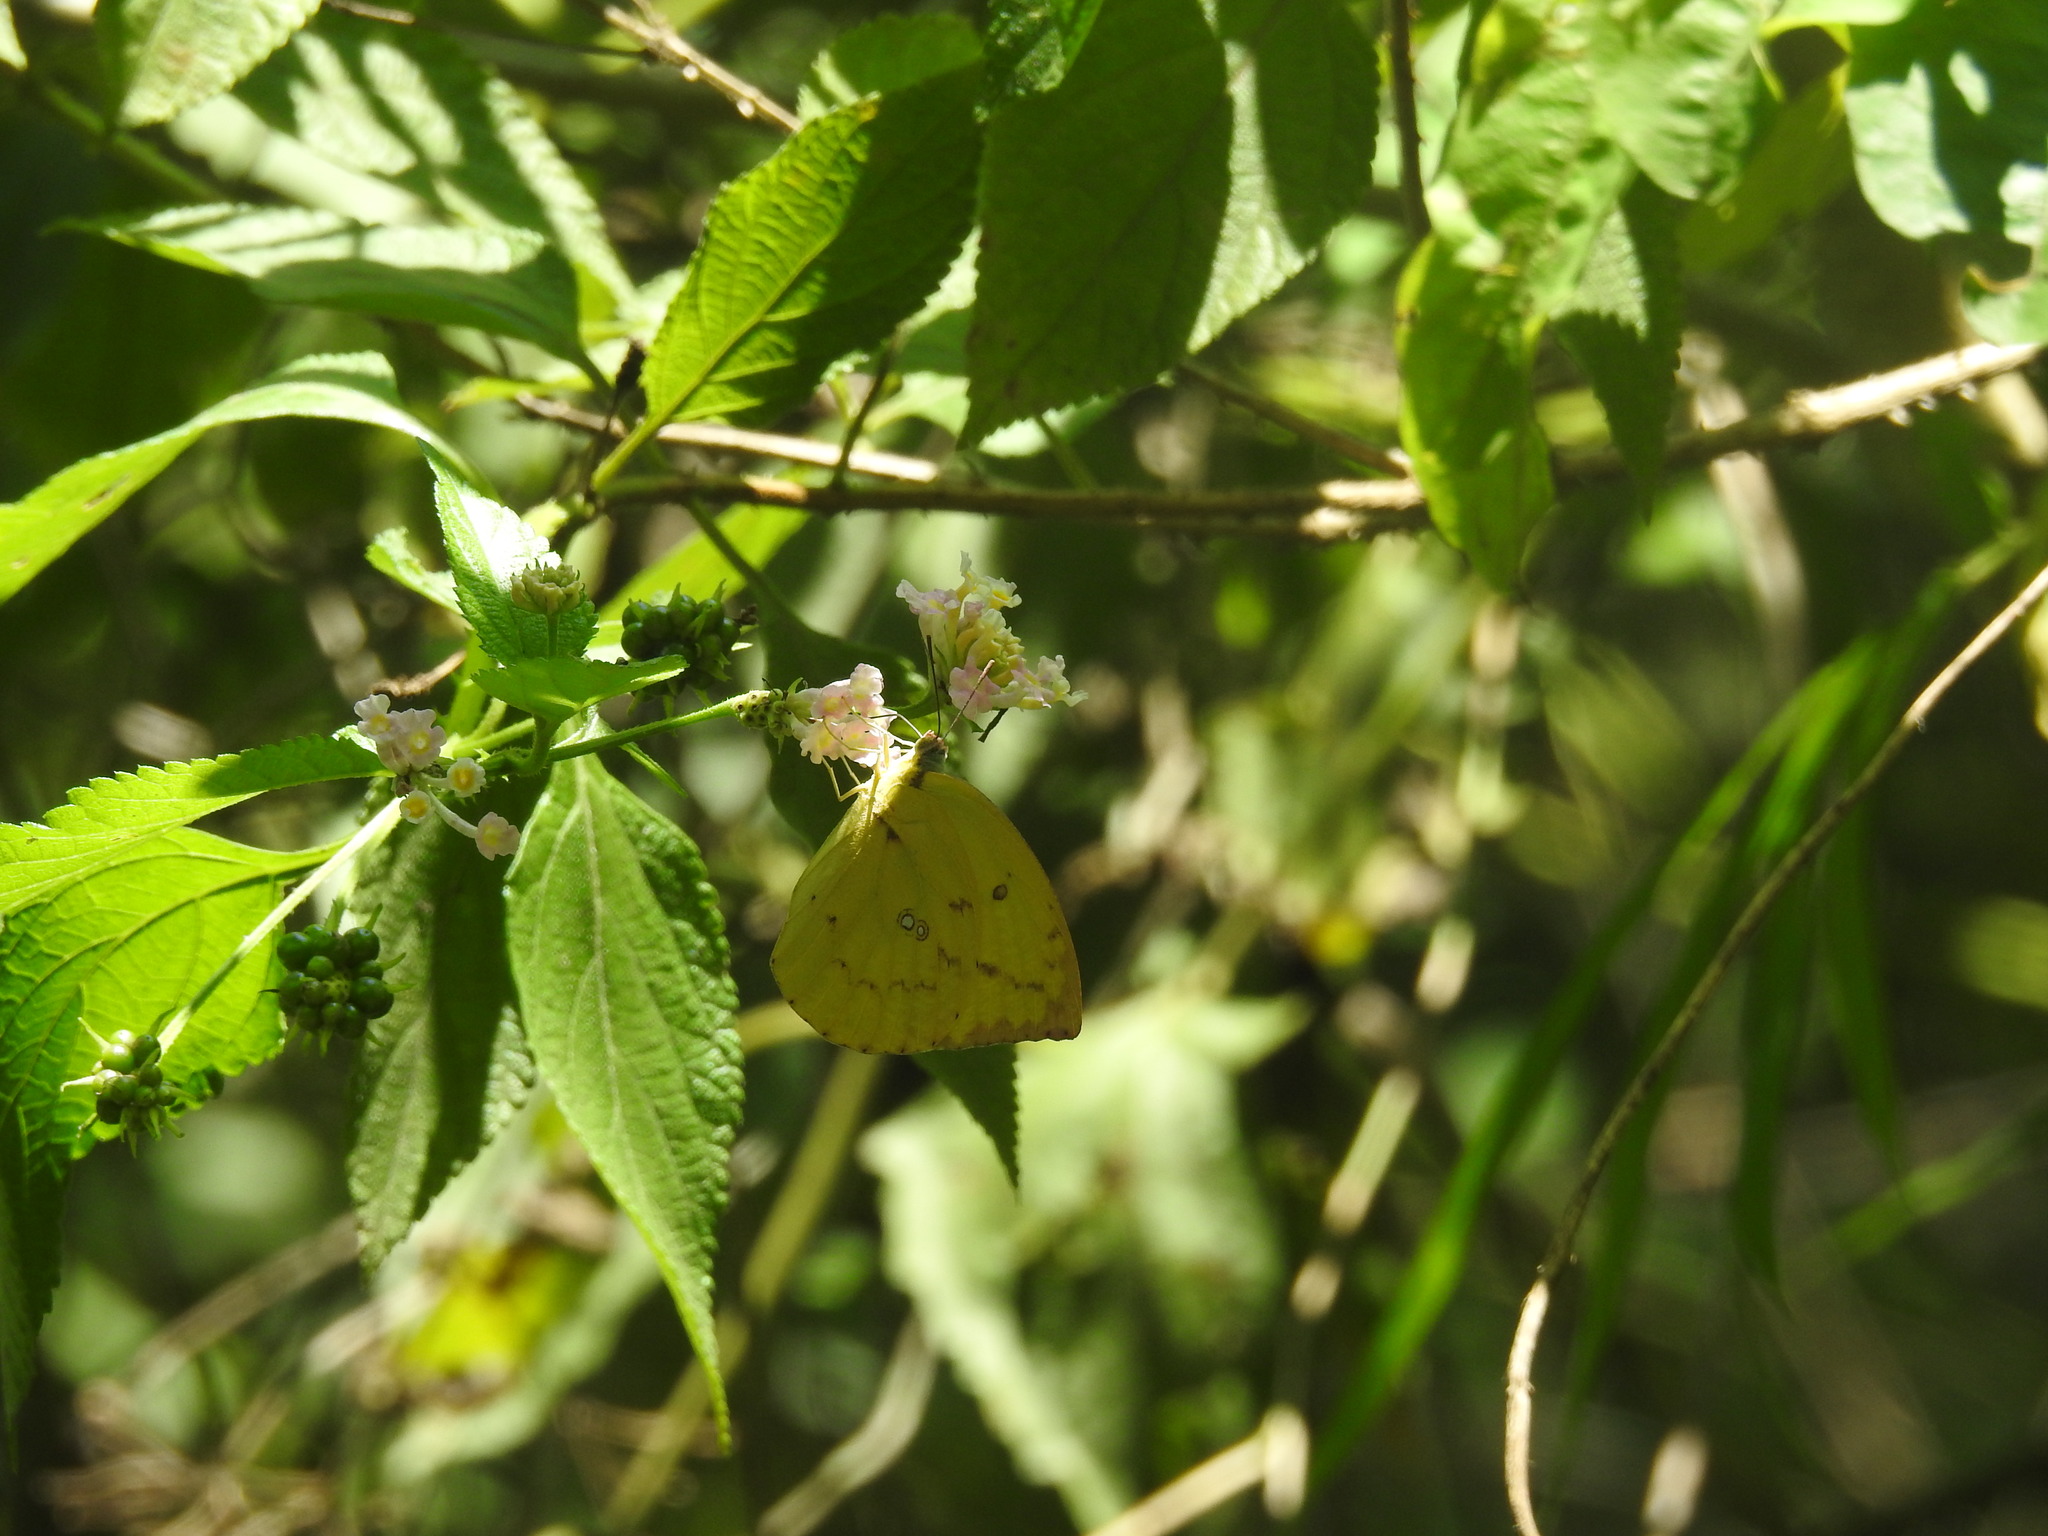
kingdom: Animalia
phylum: Arthropoda
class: Insecta
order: Lepidoptera
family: Pieridae
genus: Catopsilia
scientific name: Catopsilia pomona
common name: Common emigrant
